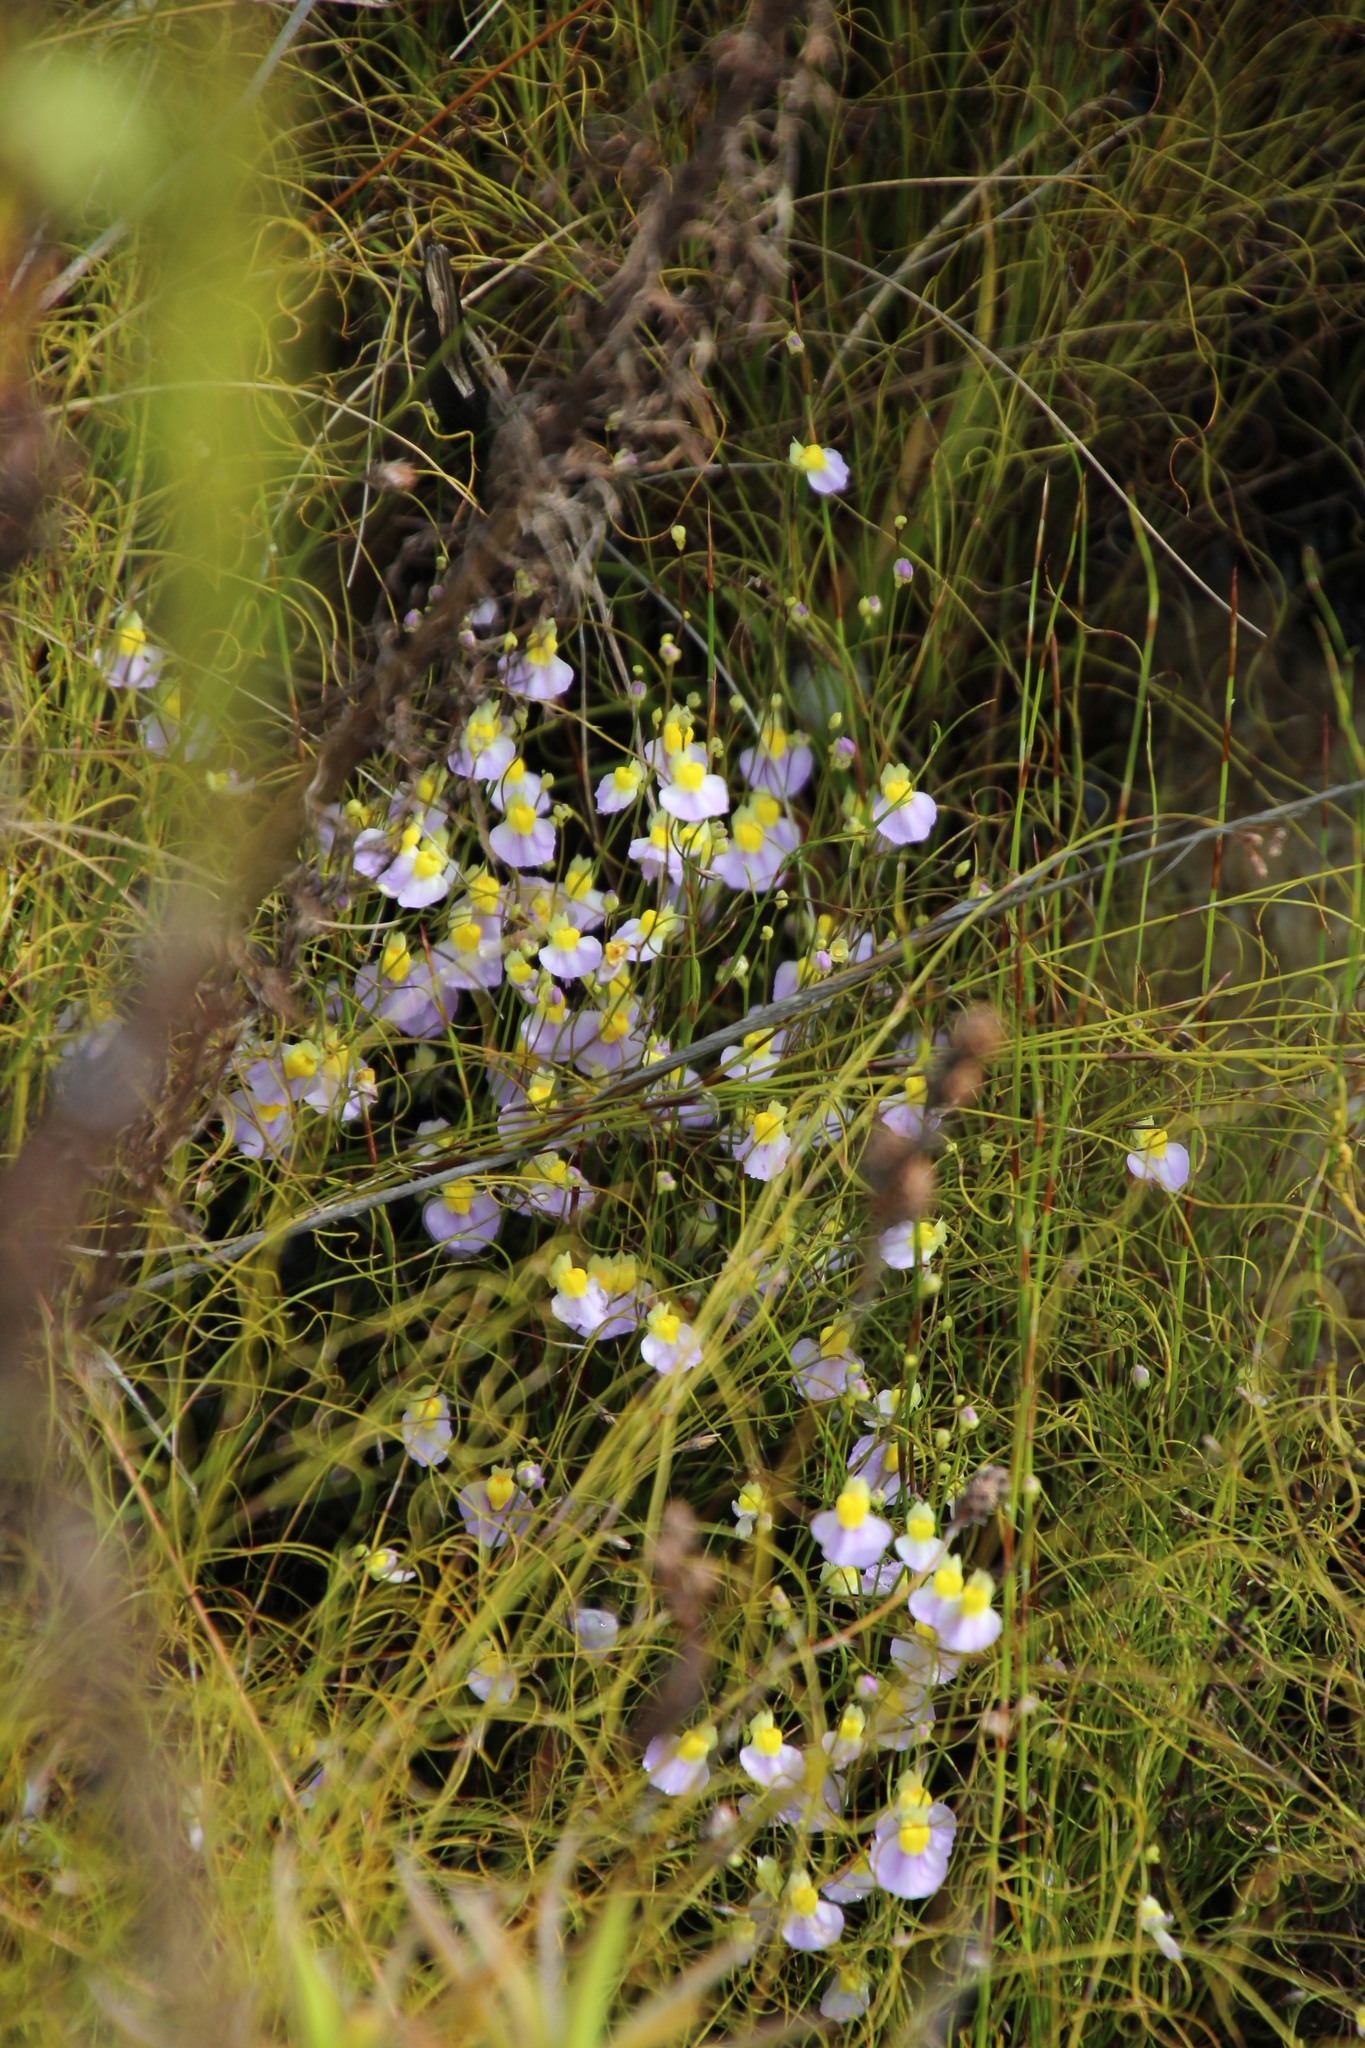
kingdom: Plantae
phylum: Tracheophyta
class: Magnoliopsida
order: Lamiales
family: Lentibulariaceae
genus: Utricularia
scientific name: Utricularia bisquamata
